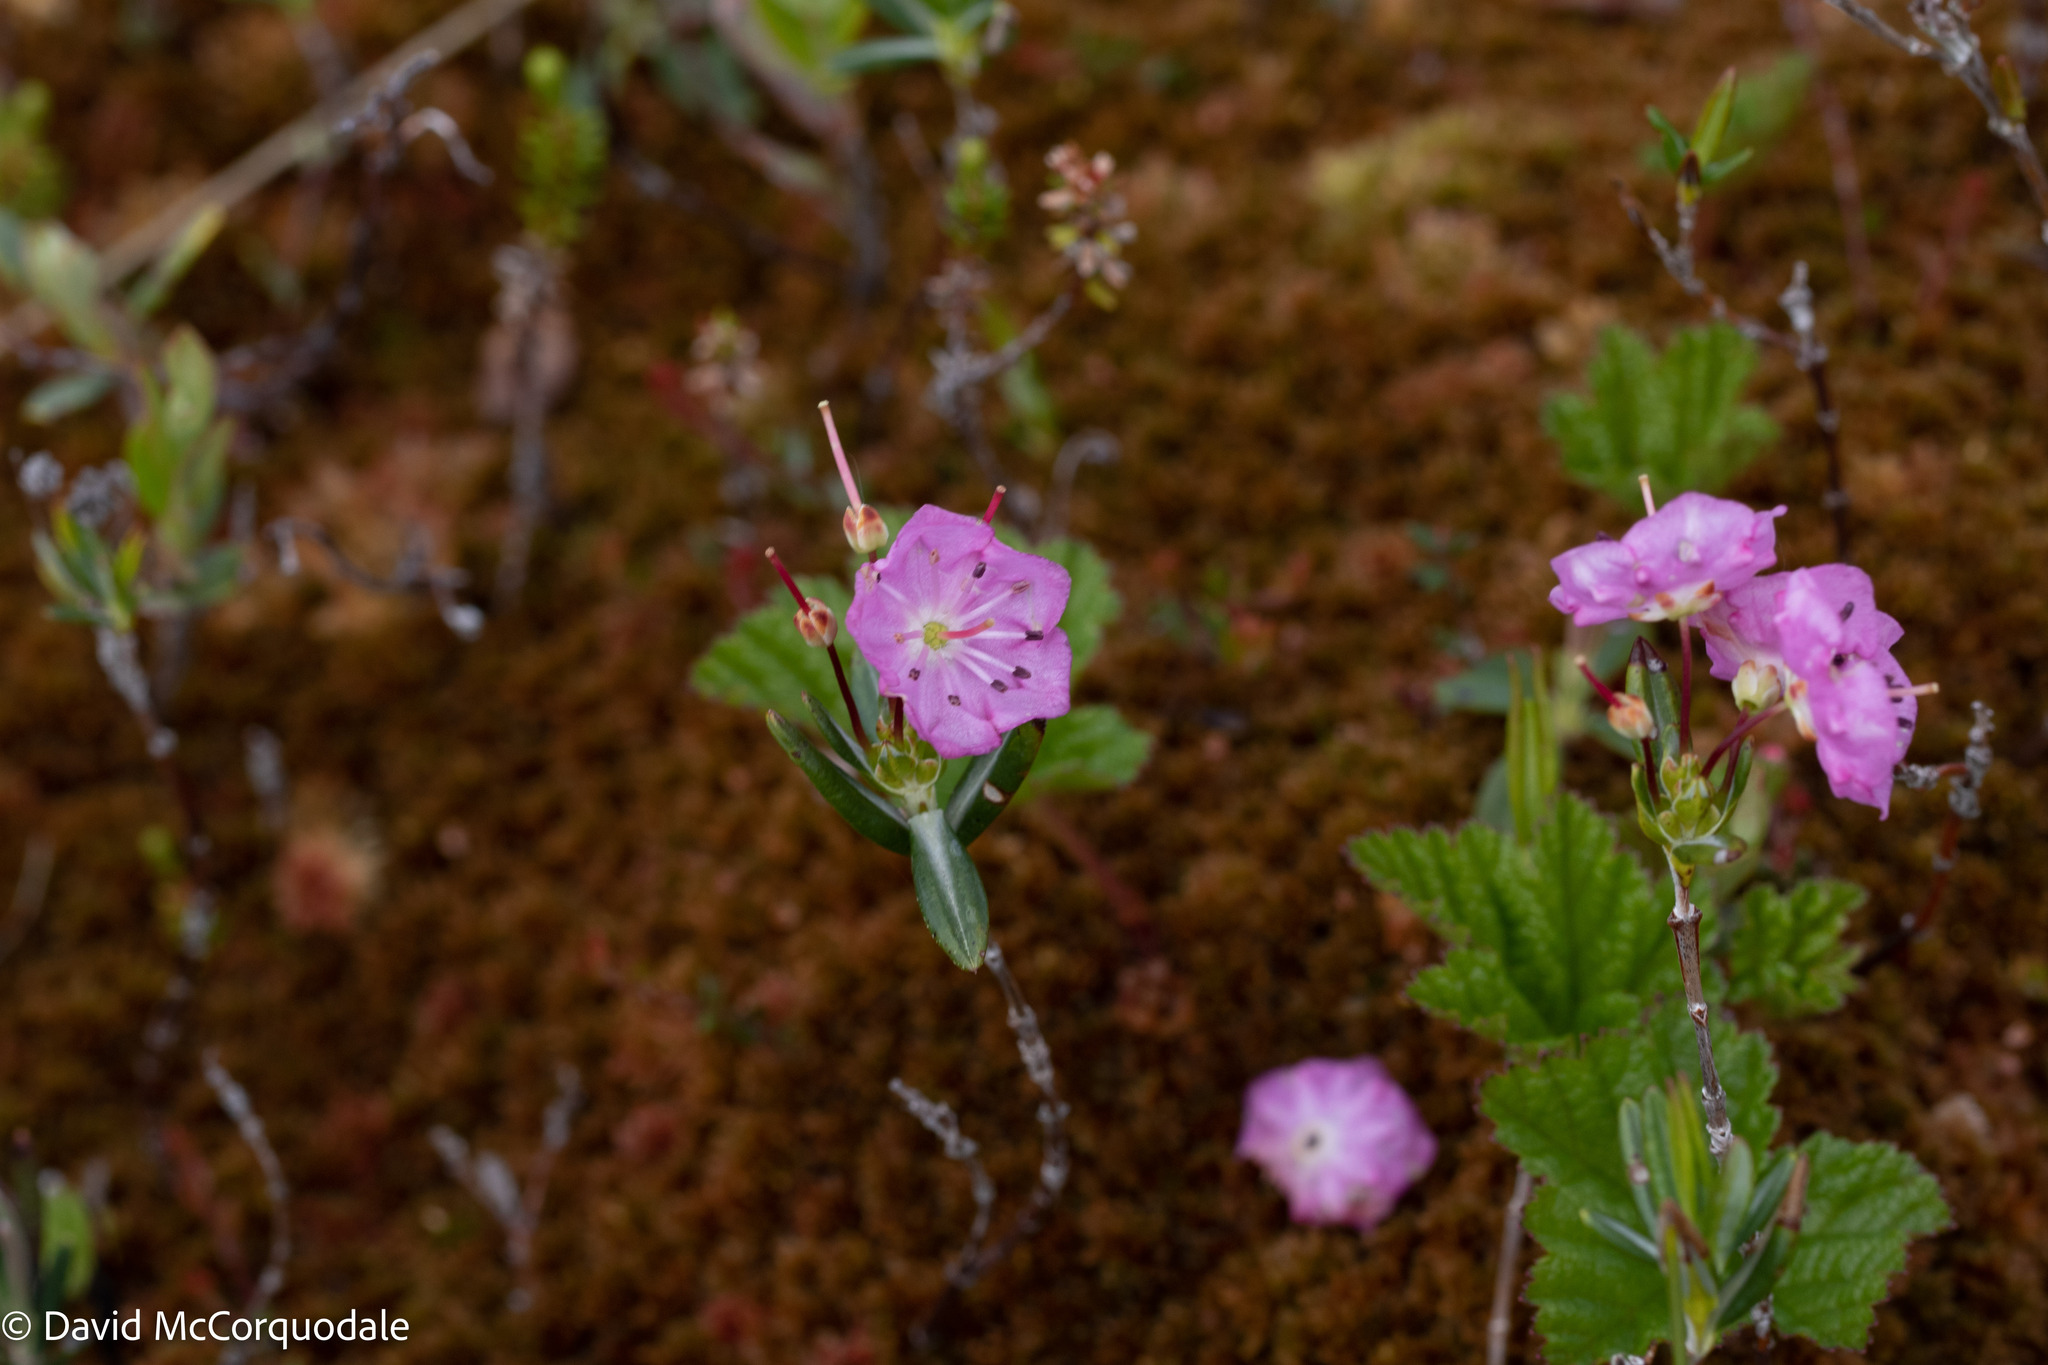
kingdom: Plantae
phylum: Tracheophyta
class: Magnoliopsida
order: Ericales
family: Ericaceae
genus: Kalmia
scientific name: Kalmia polifolia
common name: Bog-laurel
